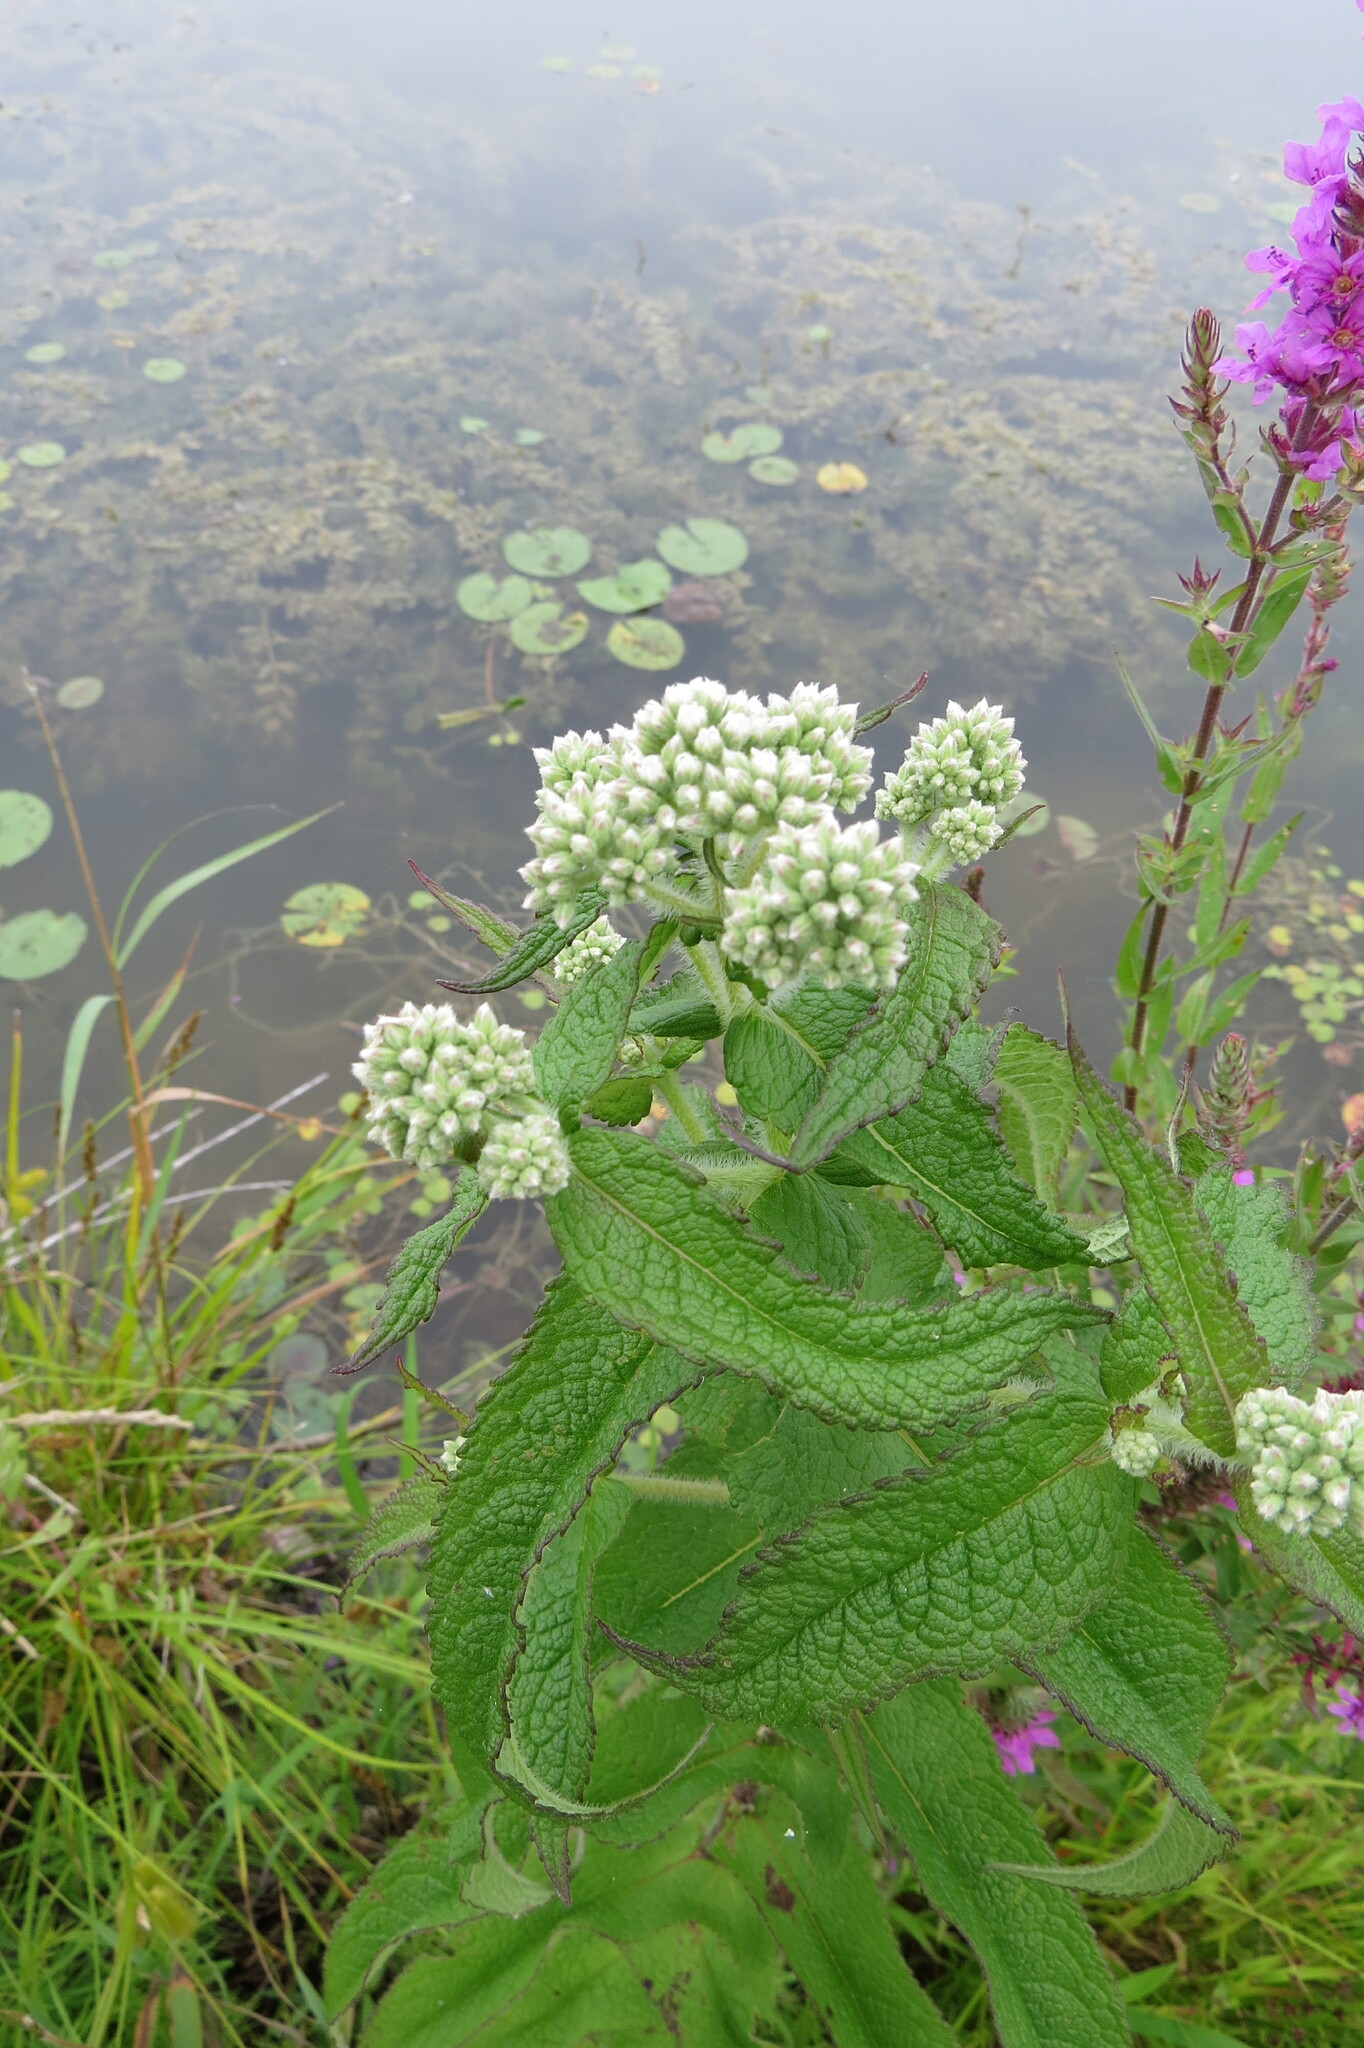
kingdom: Plantae
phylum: Tracheophyta
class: Magnoliopsida
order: Asterales
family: Asteraceae
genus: Eupatorium
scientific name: Eupatorium perfoliatum
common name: Boneset
